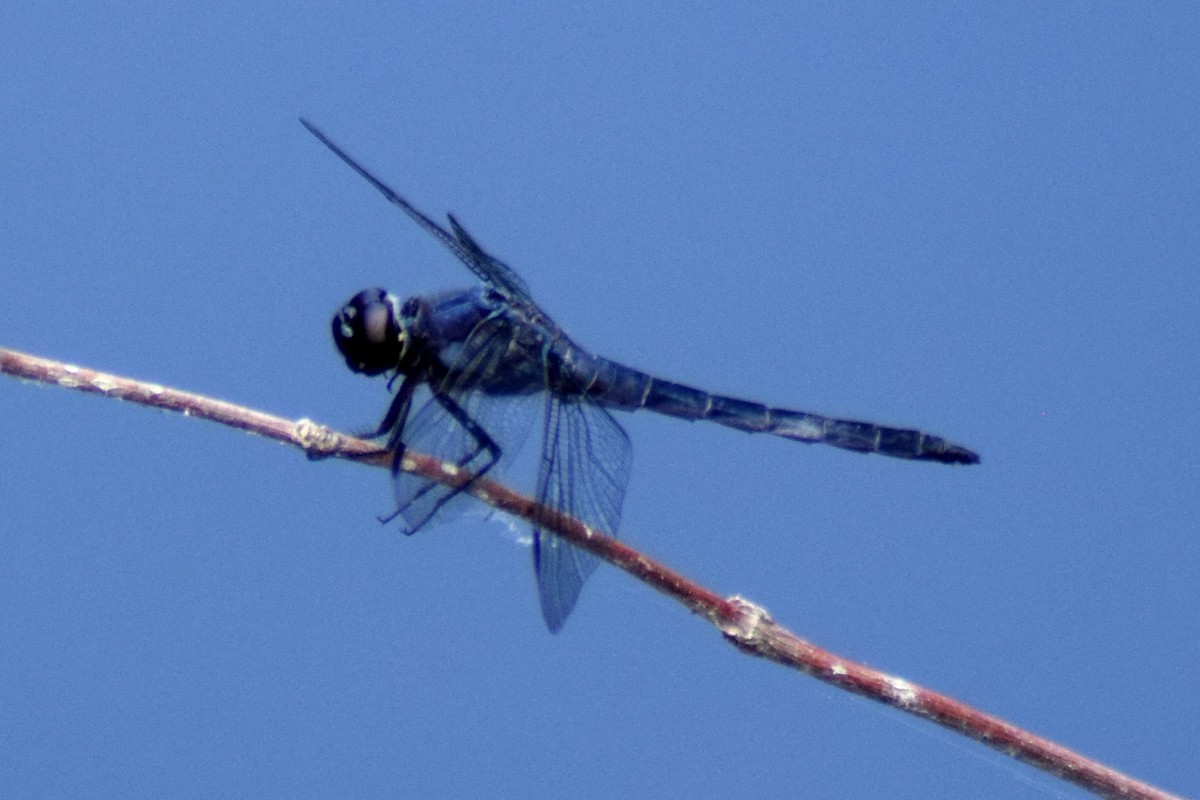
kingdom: Animalia
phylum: Arthropoda
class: Insecta
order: Odonata
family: Libellulidae
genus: Libellula
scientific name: Libellula incesta
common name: Slaty skimmer
